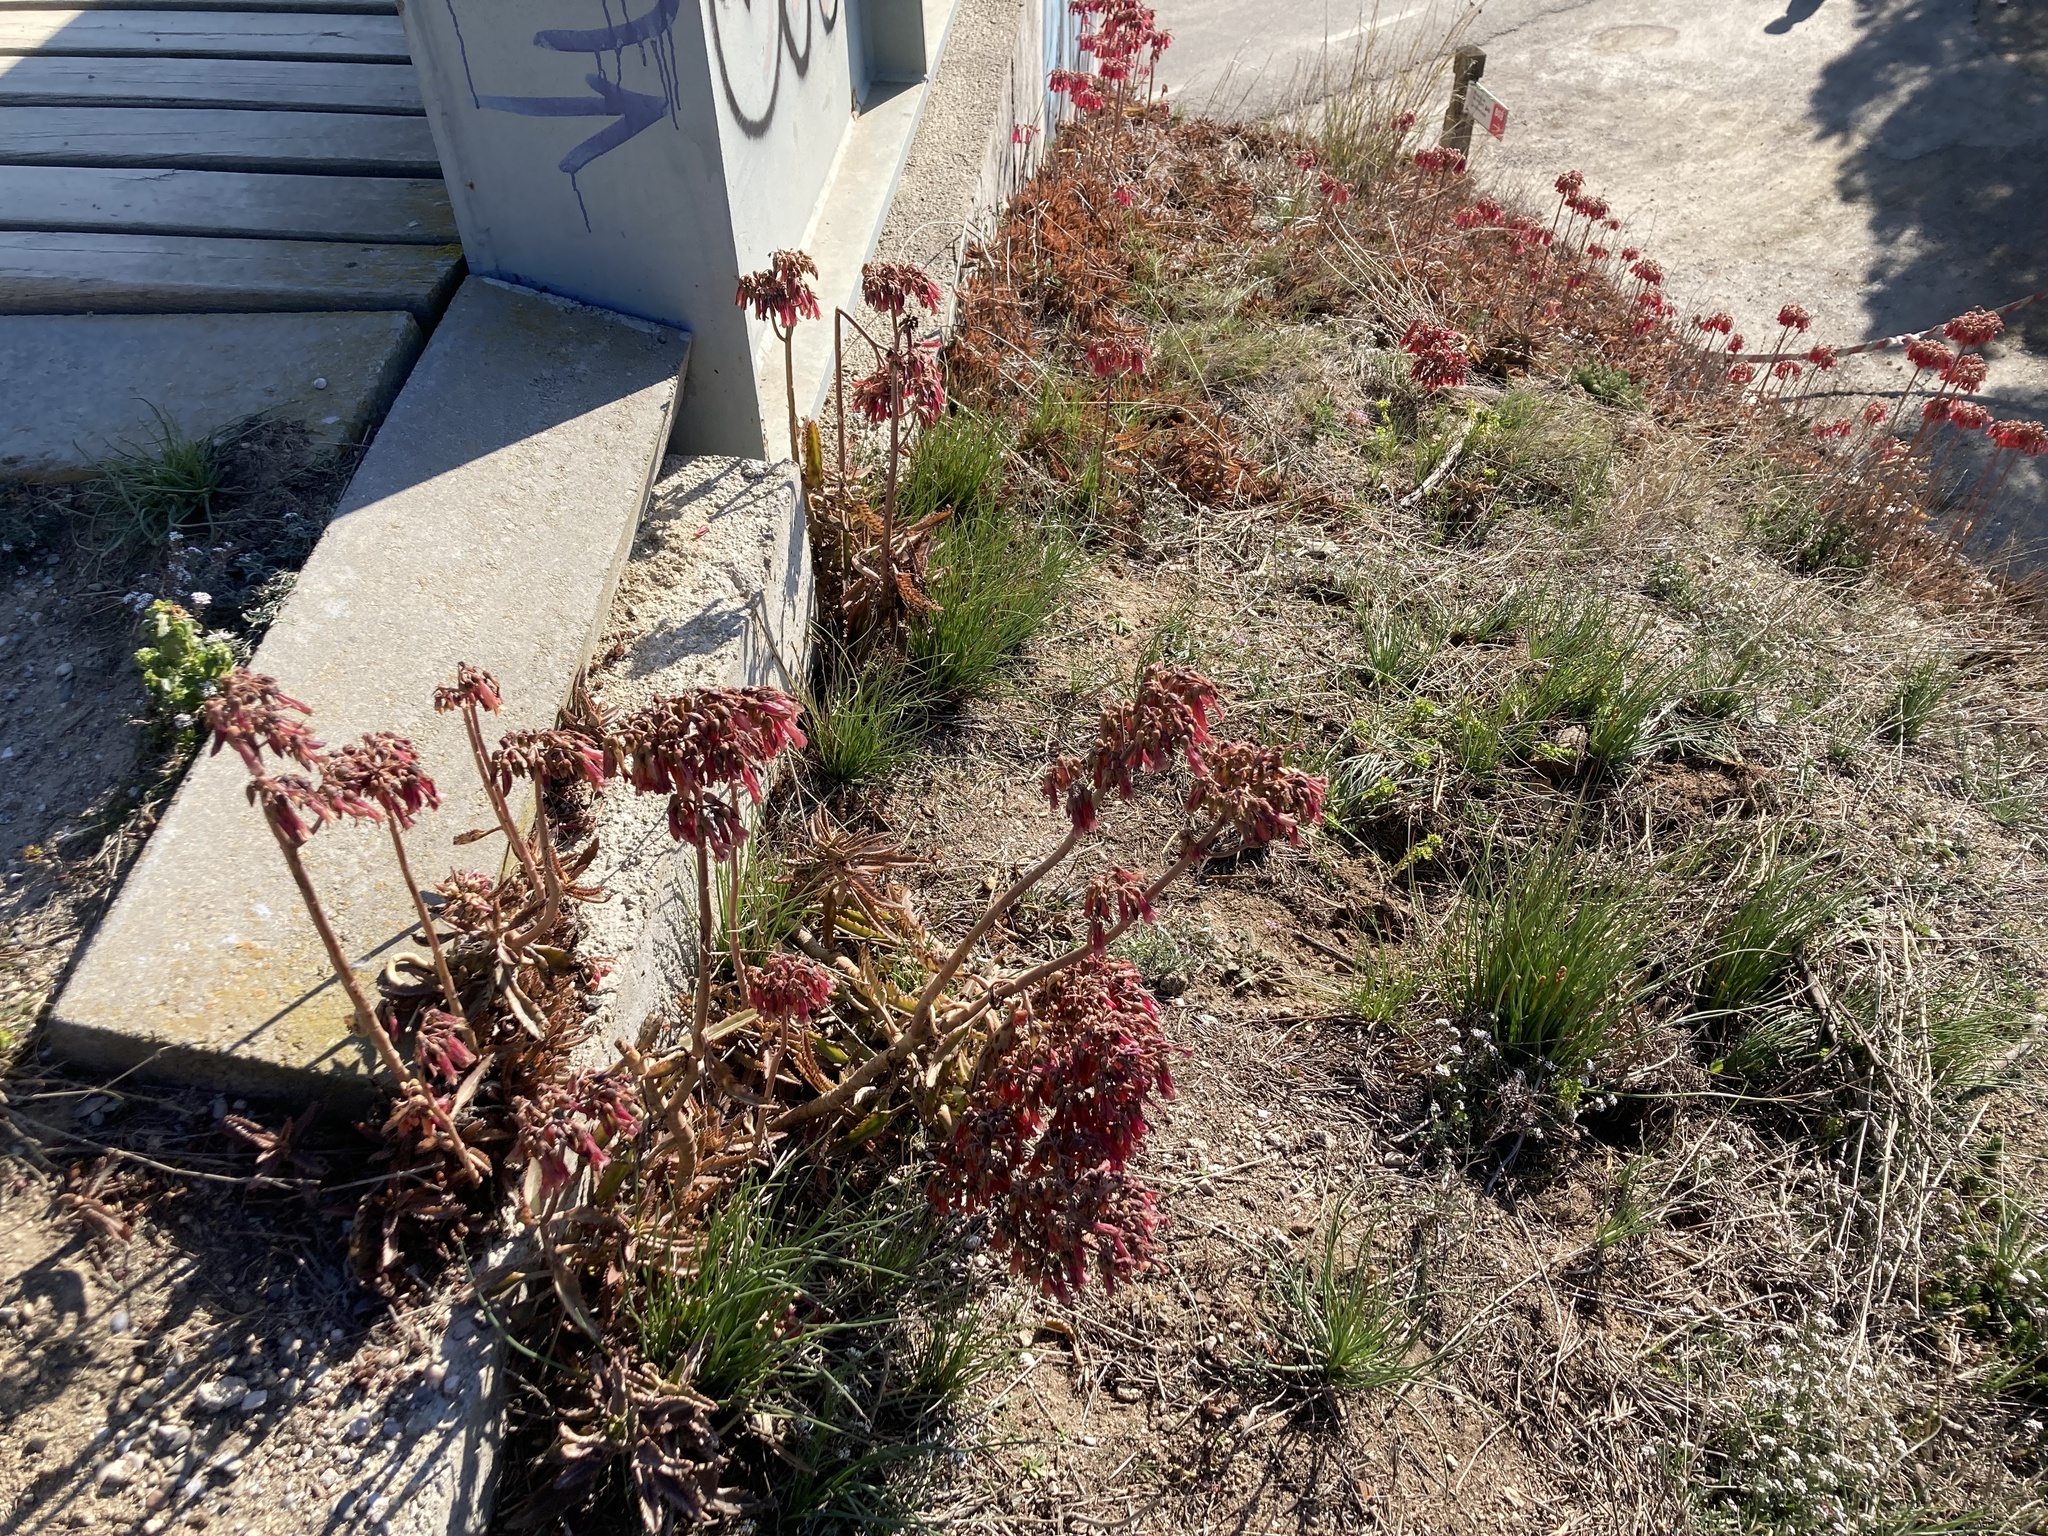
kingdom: Plantae
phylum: Tracheophyta
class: Magnoliopsida
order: Saxifragales
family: Crassulaceae
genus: Kalanchoe
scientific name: Kalanchoe houghtonii
